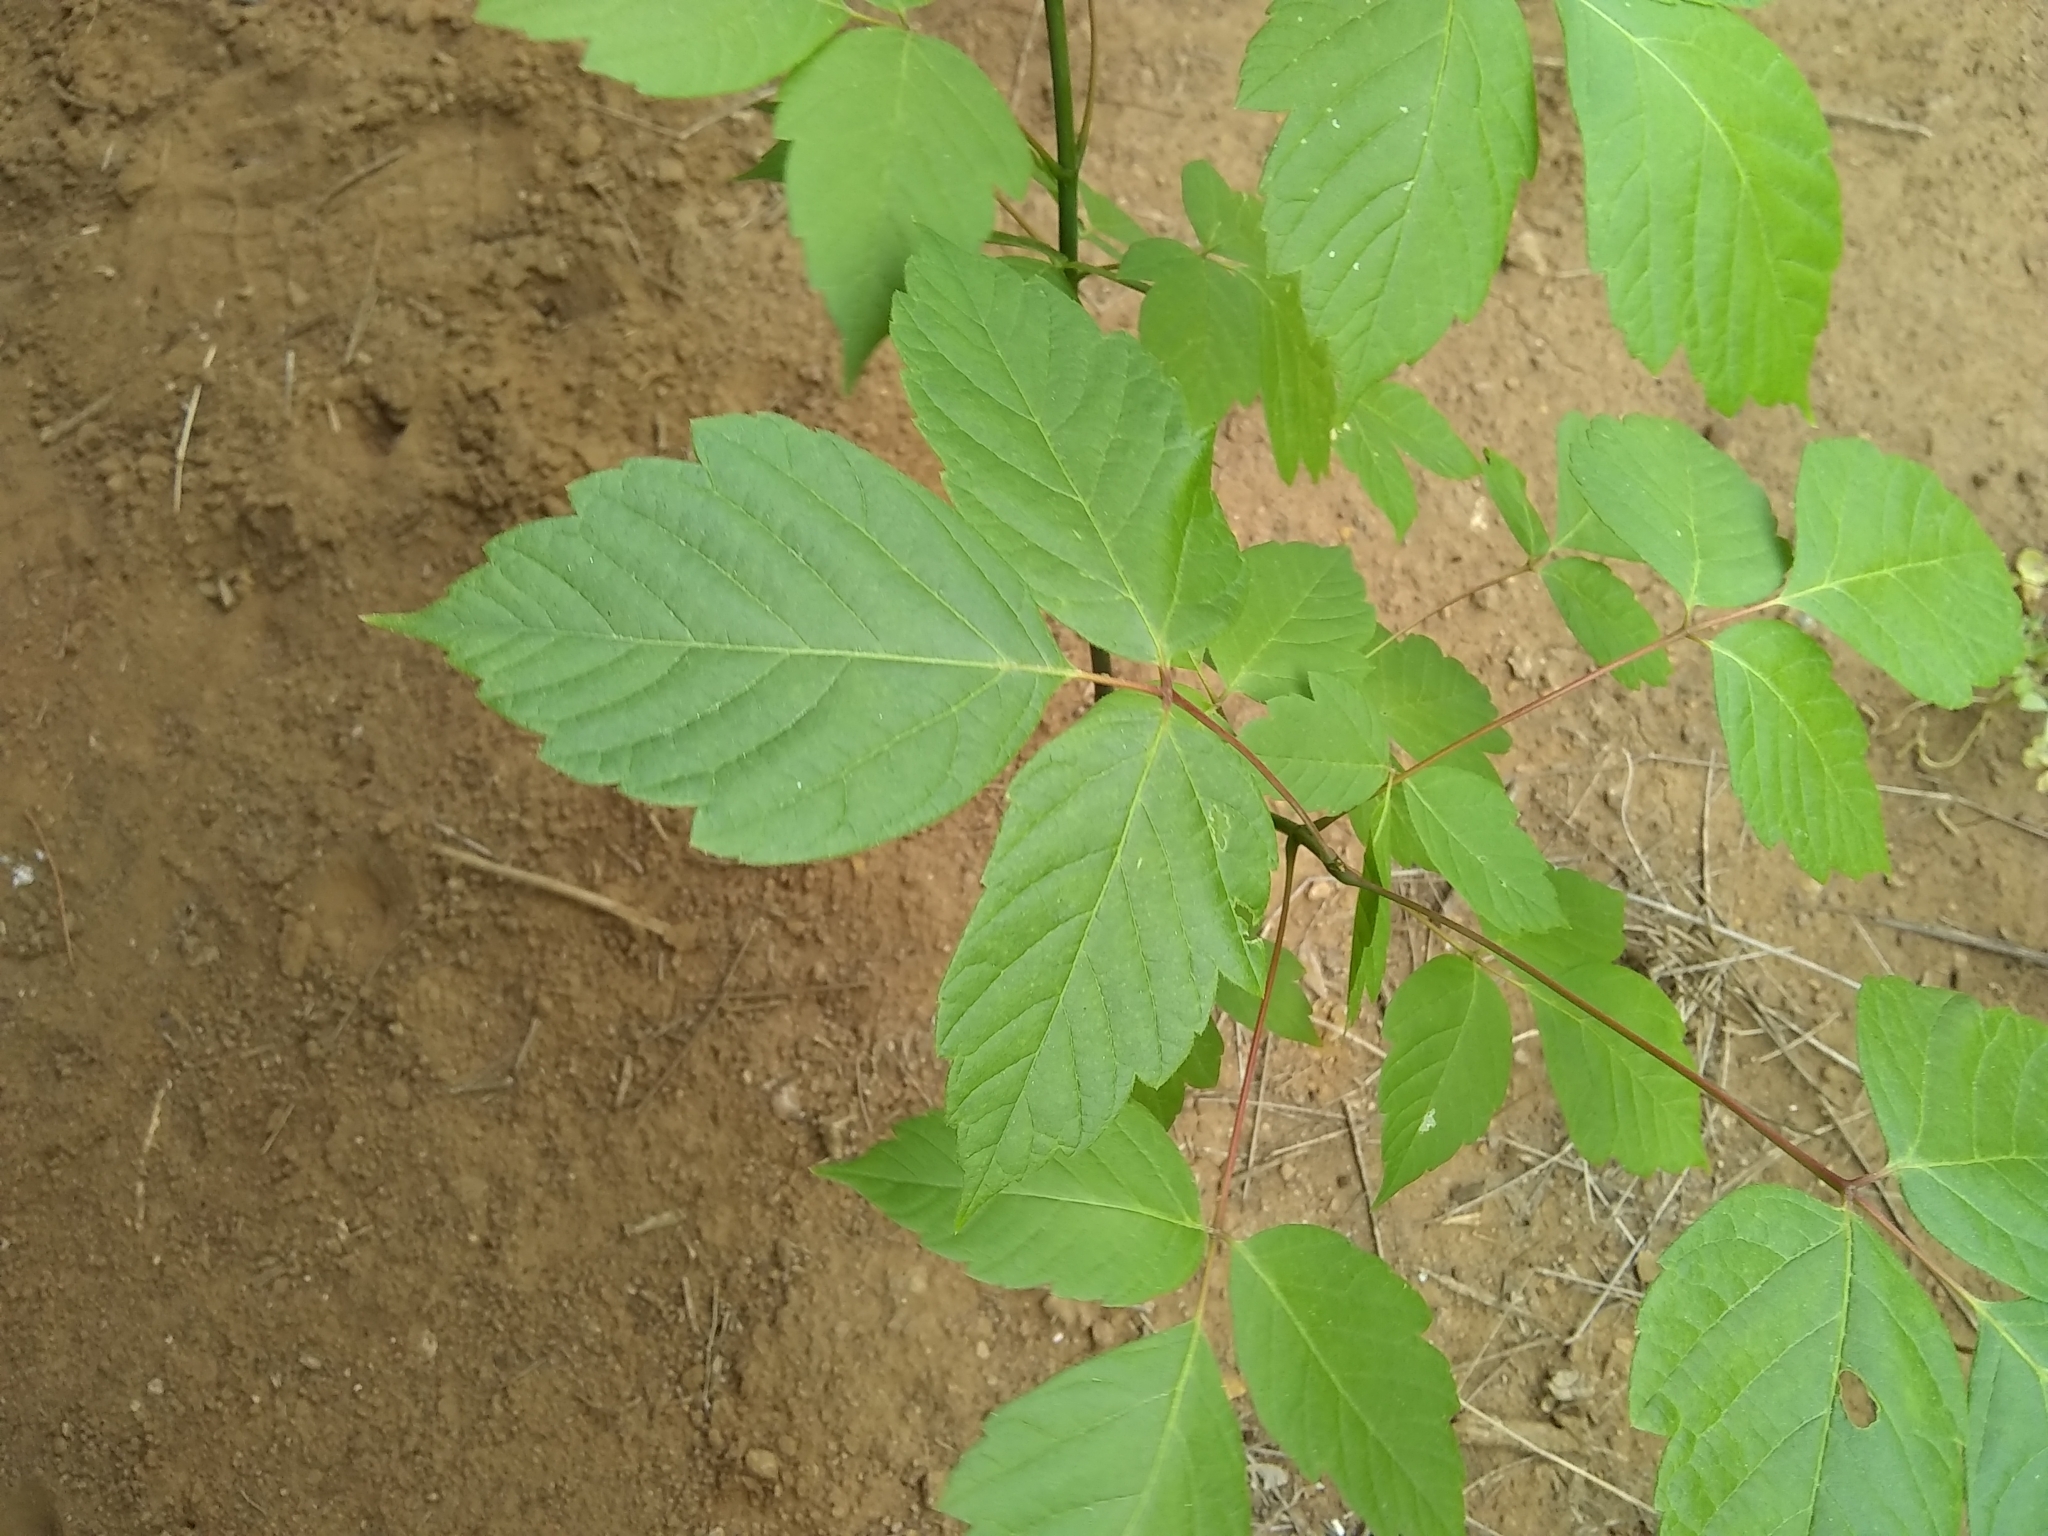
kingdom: Plantae
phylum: Tracheophyta
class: Magnoliopsida
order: Sapindales
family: Sapindaceae
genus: Acer
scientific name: Acer negundo
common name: Ashleaf maple
